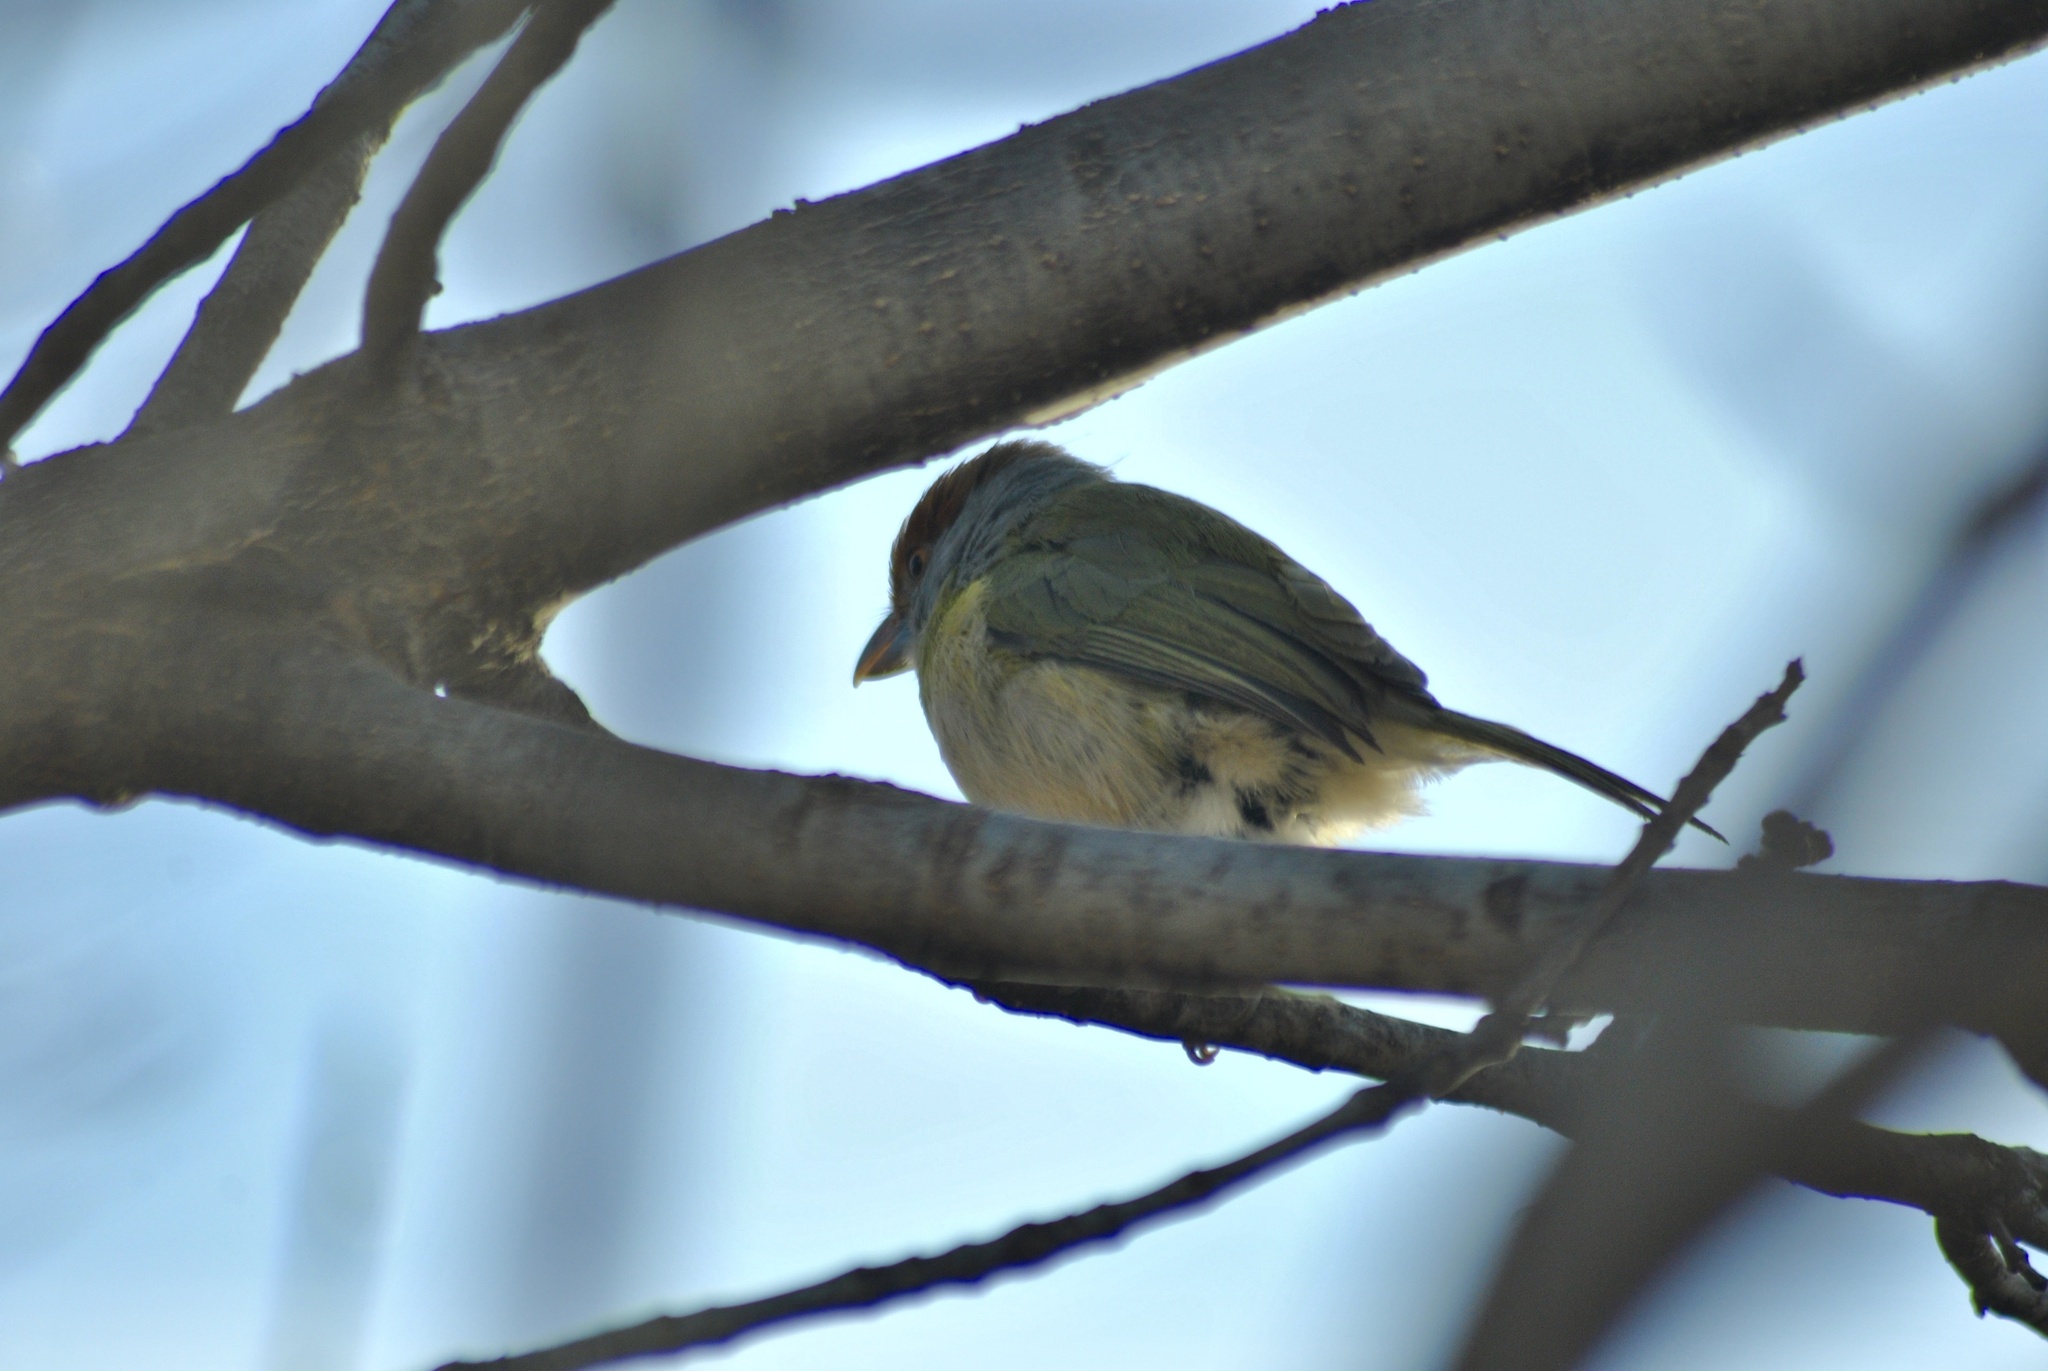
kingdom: Animalia
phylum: Chordata
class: Aves
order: Passeriformes
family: Vireonidae
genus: Cyclarhis
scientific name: Cyclarhis gujanensis
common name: Rufous-browed peppershrike
